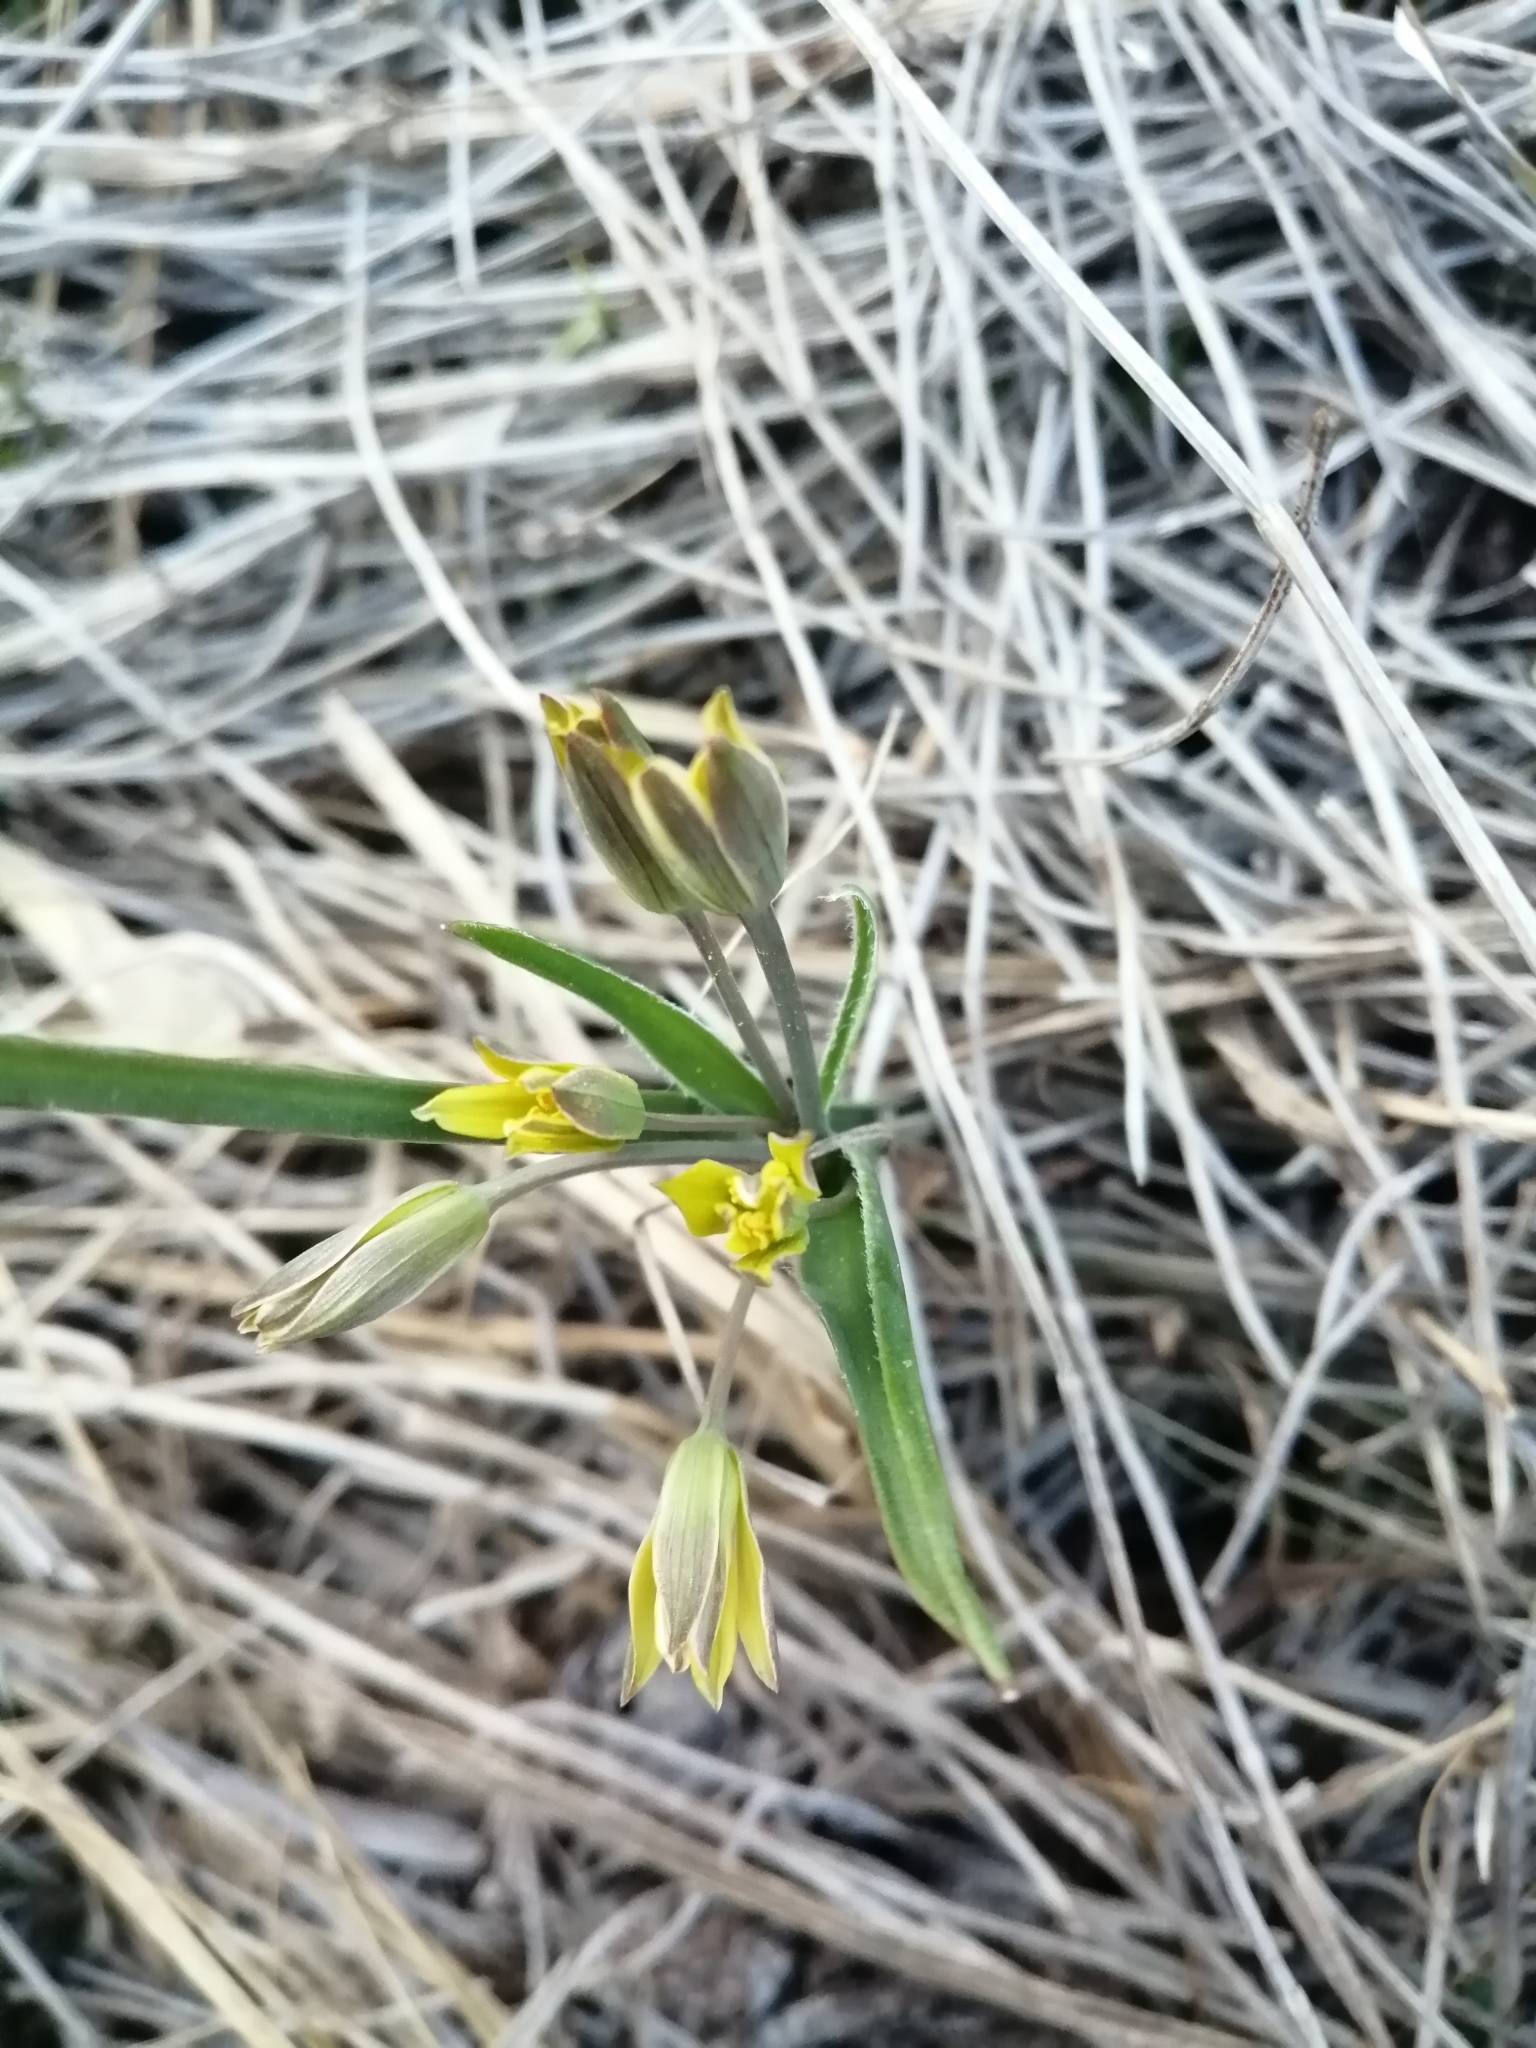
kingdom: Plantae
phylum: Tracheophyta
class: Liliopsida
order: Liliales
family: Liliaceae
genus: Gagea
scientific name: Gagea pusilla
